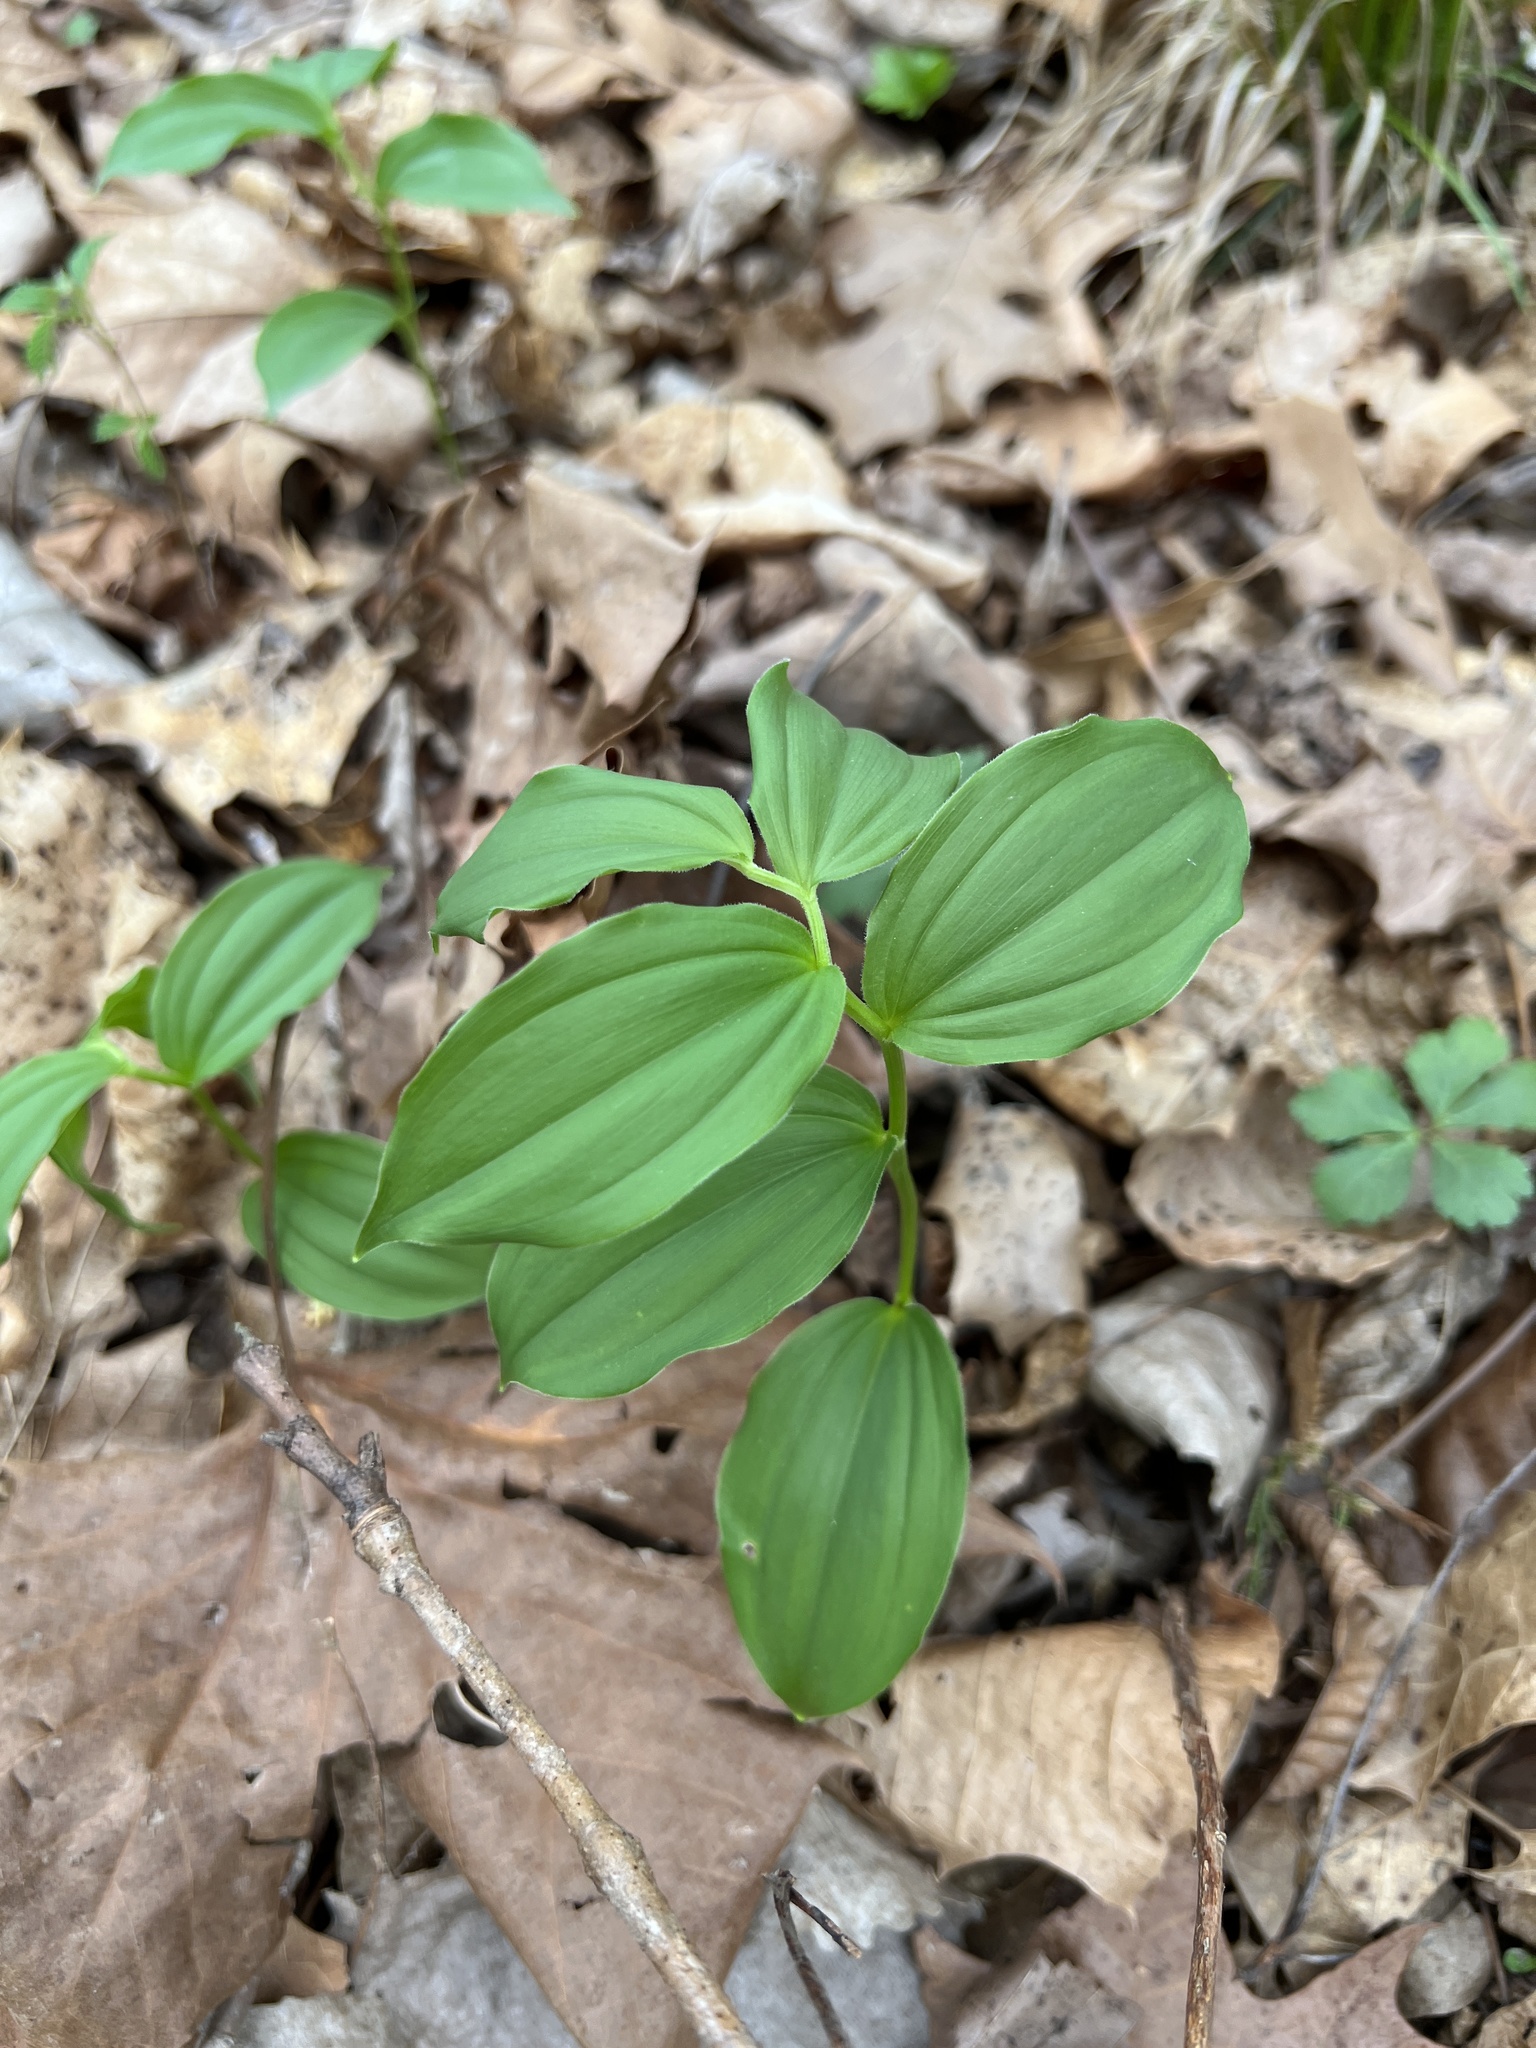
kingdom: Plantae
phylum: Tracheophyta
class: Liliopsida
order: Asparagales
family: Asparagaceae
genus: Maianthemum
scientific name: Maianthemum racemosum
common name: False spikenard
